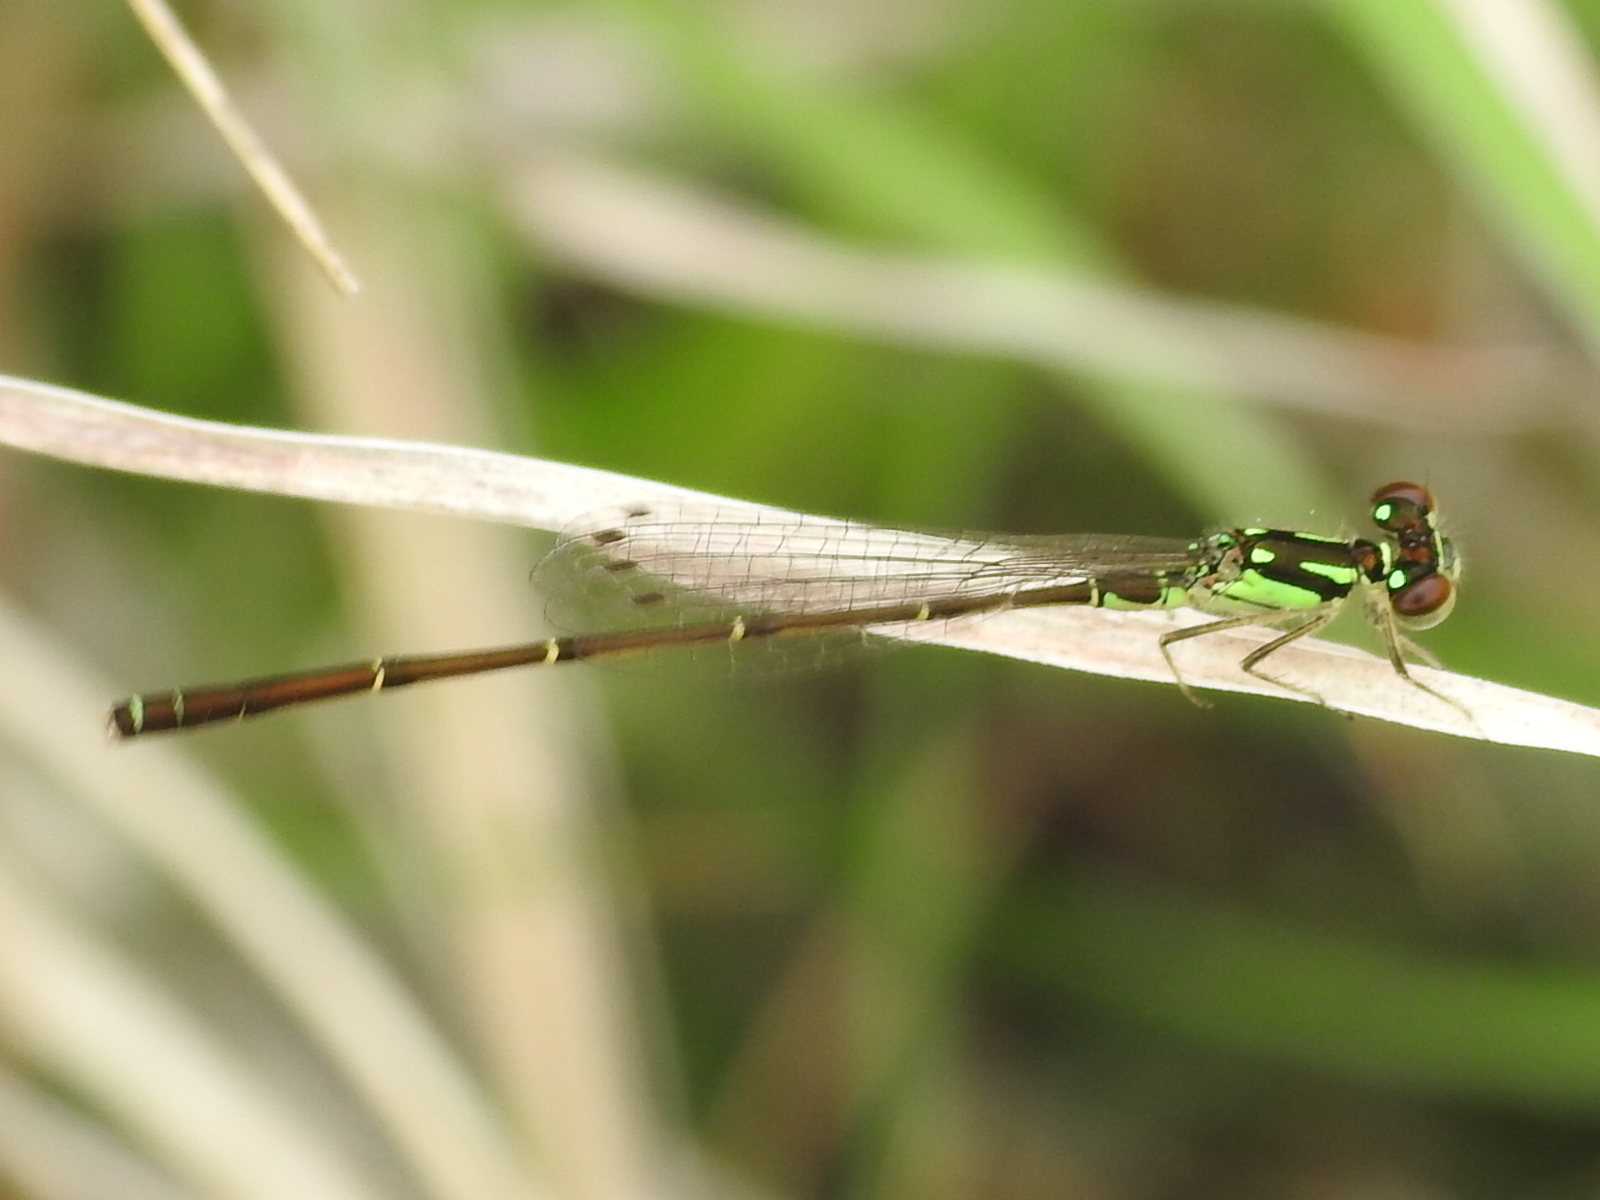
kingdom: Animalia
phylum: Arthropoda
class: Insecta
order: Odonata
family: Coenagrionidae
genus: Ischnura
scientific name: Ischnura posita
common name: Fragile forktail
